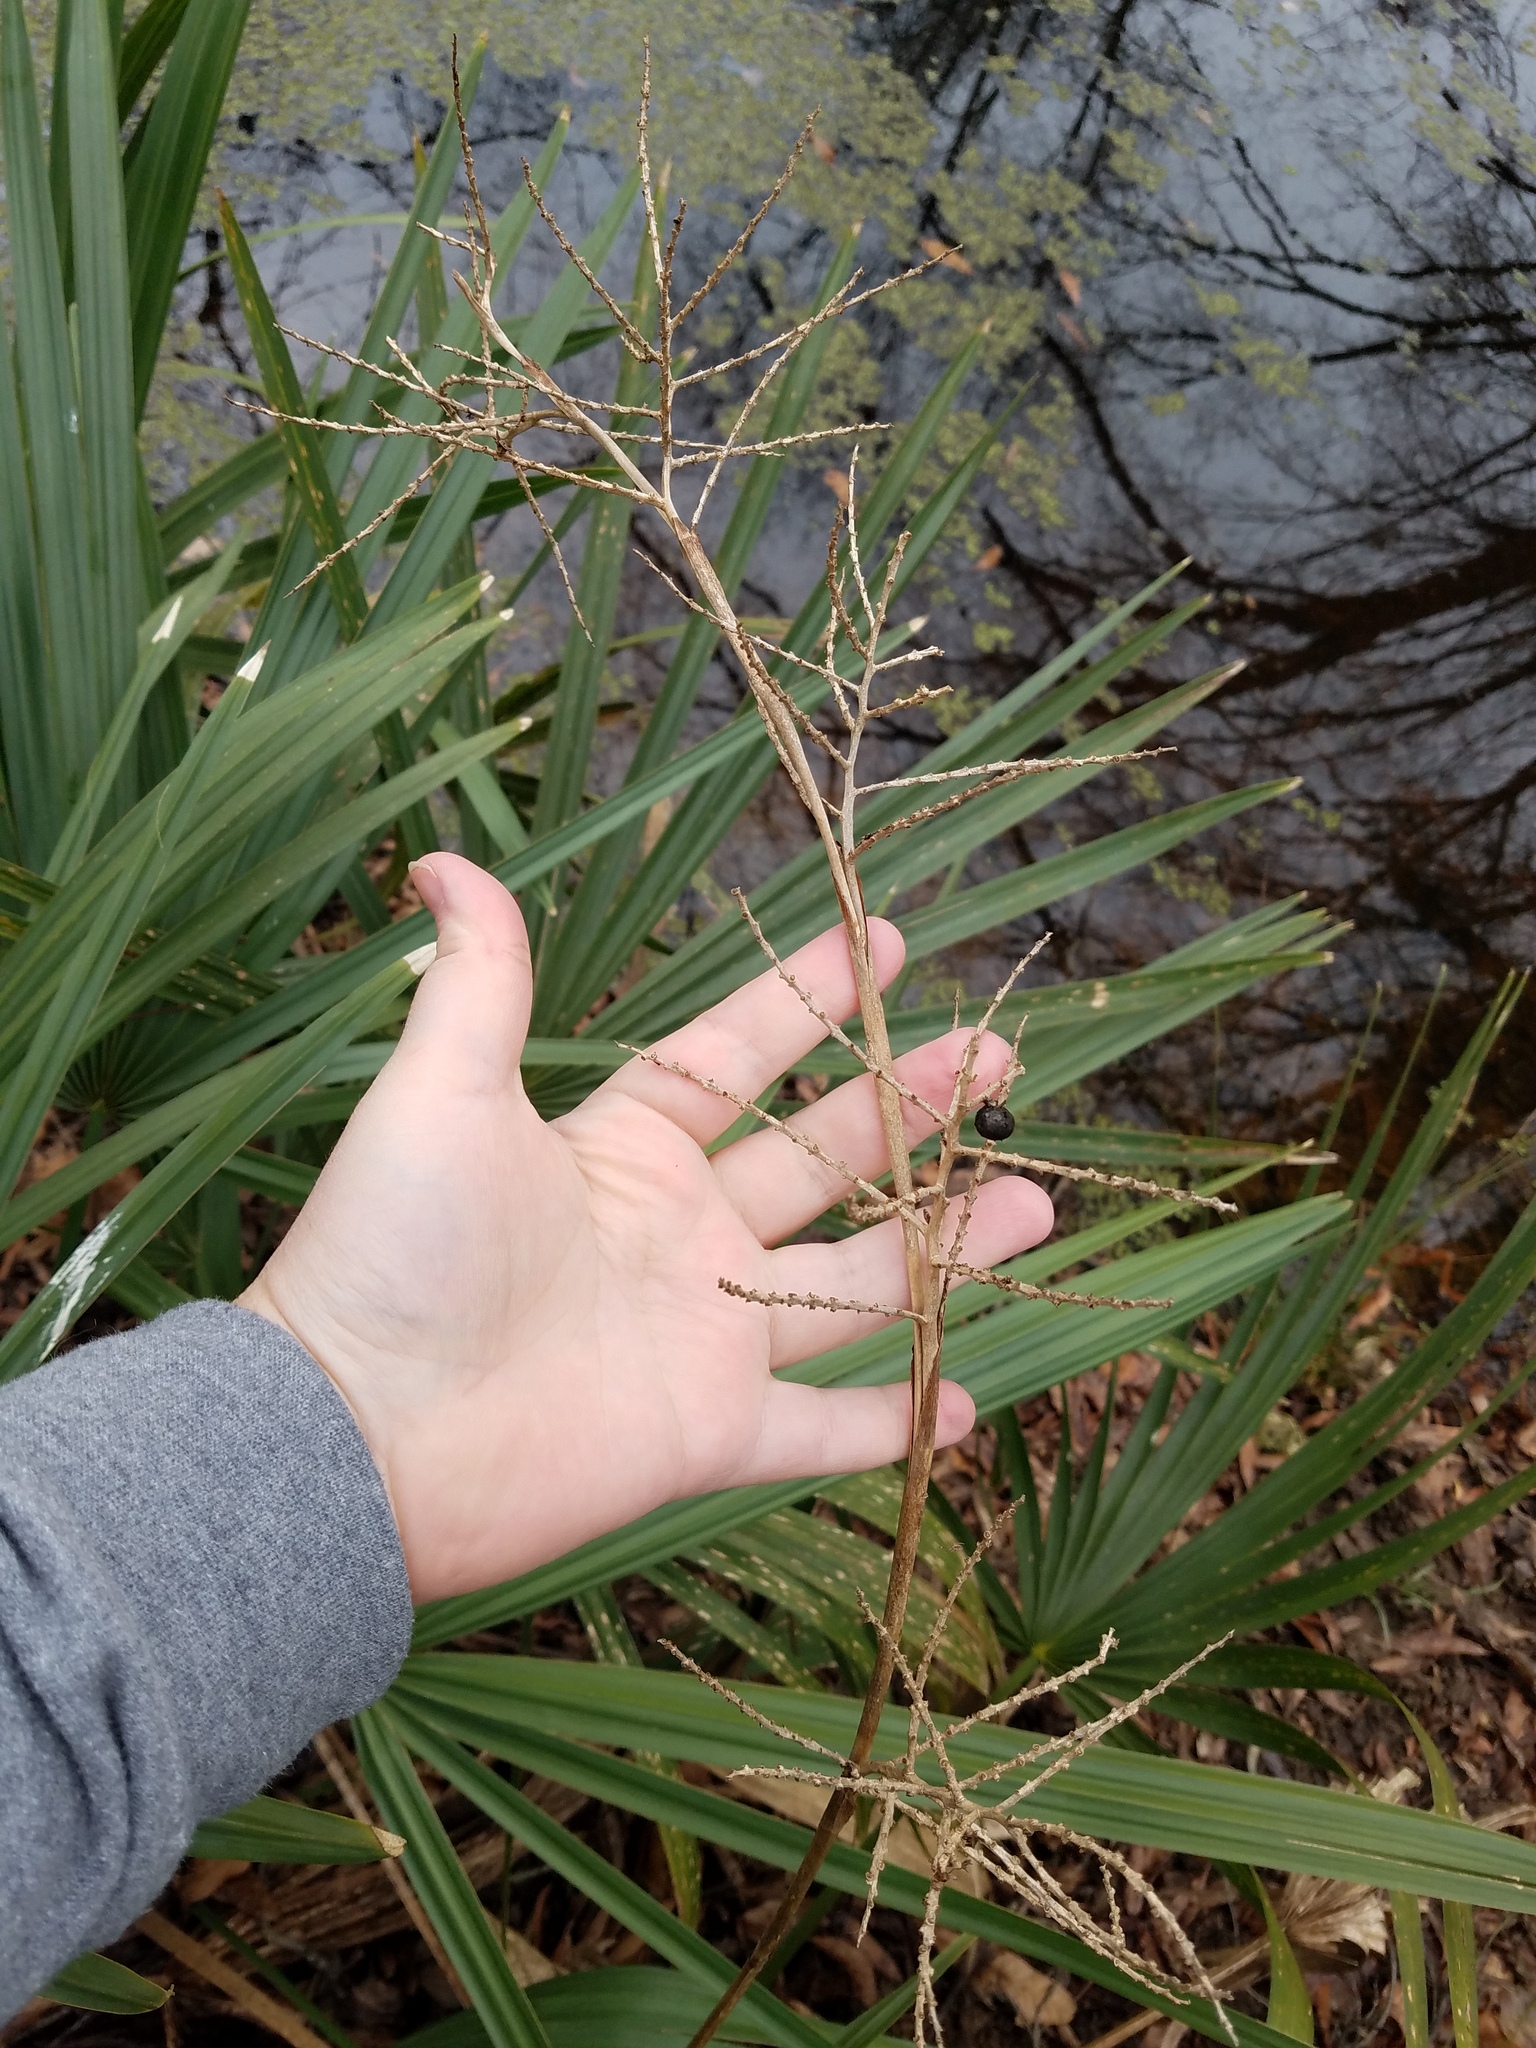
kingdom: Plantae
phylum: Tracheophyta
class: Liliopsida
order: Arecales
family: Arecaceae
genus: Sabal
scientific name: Sabal minor
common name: Dwarf palmetto
